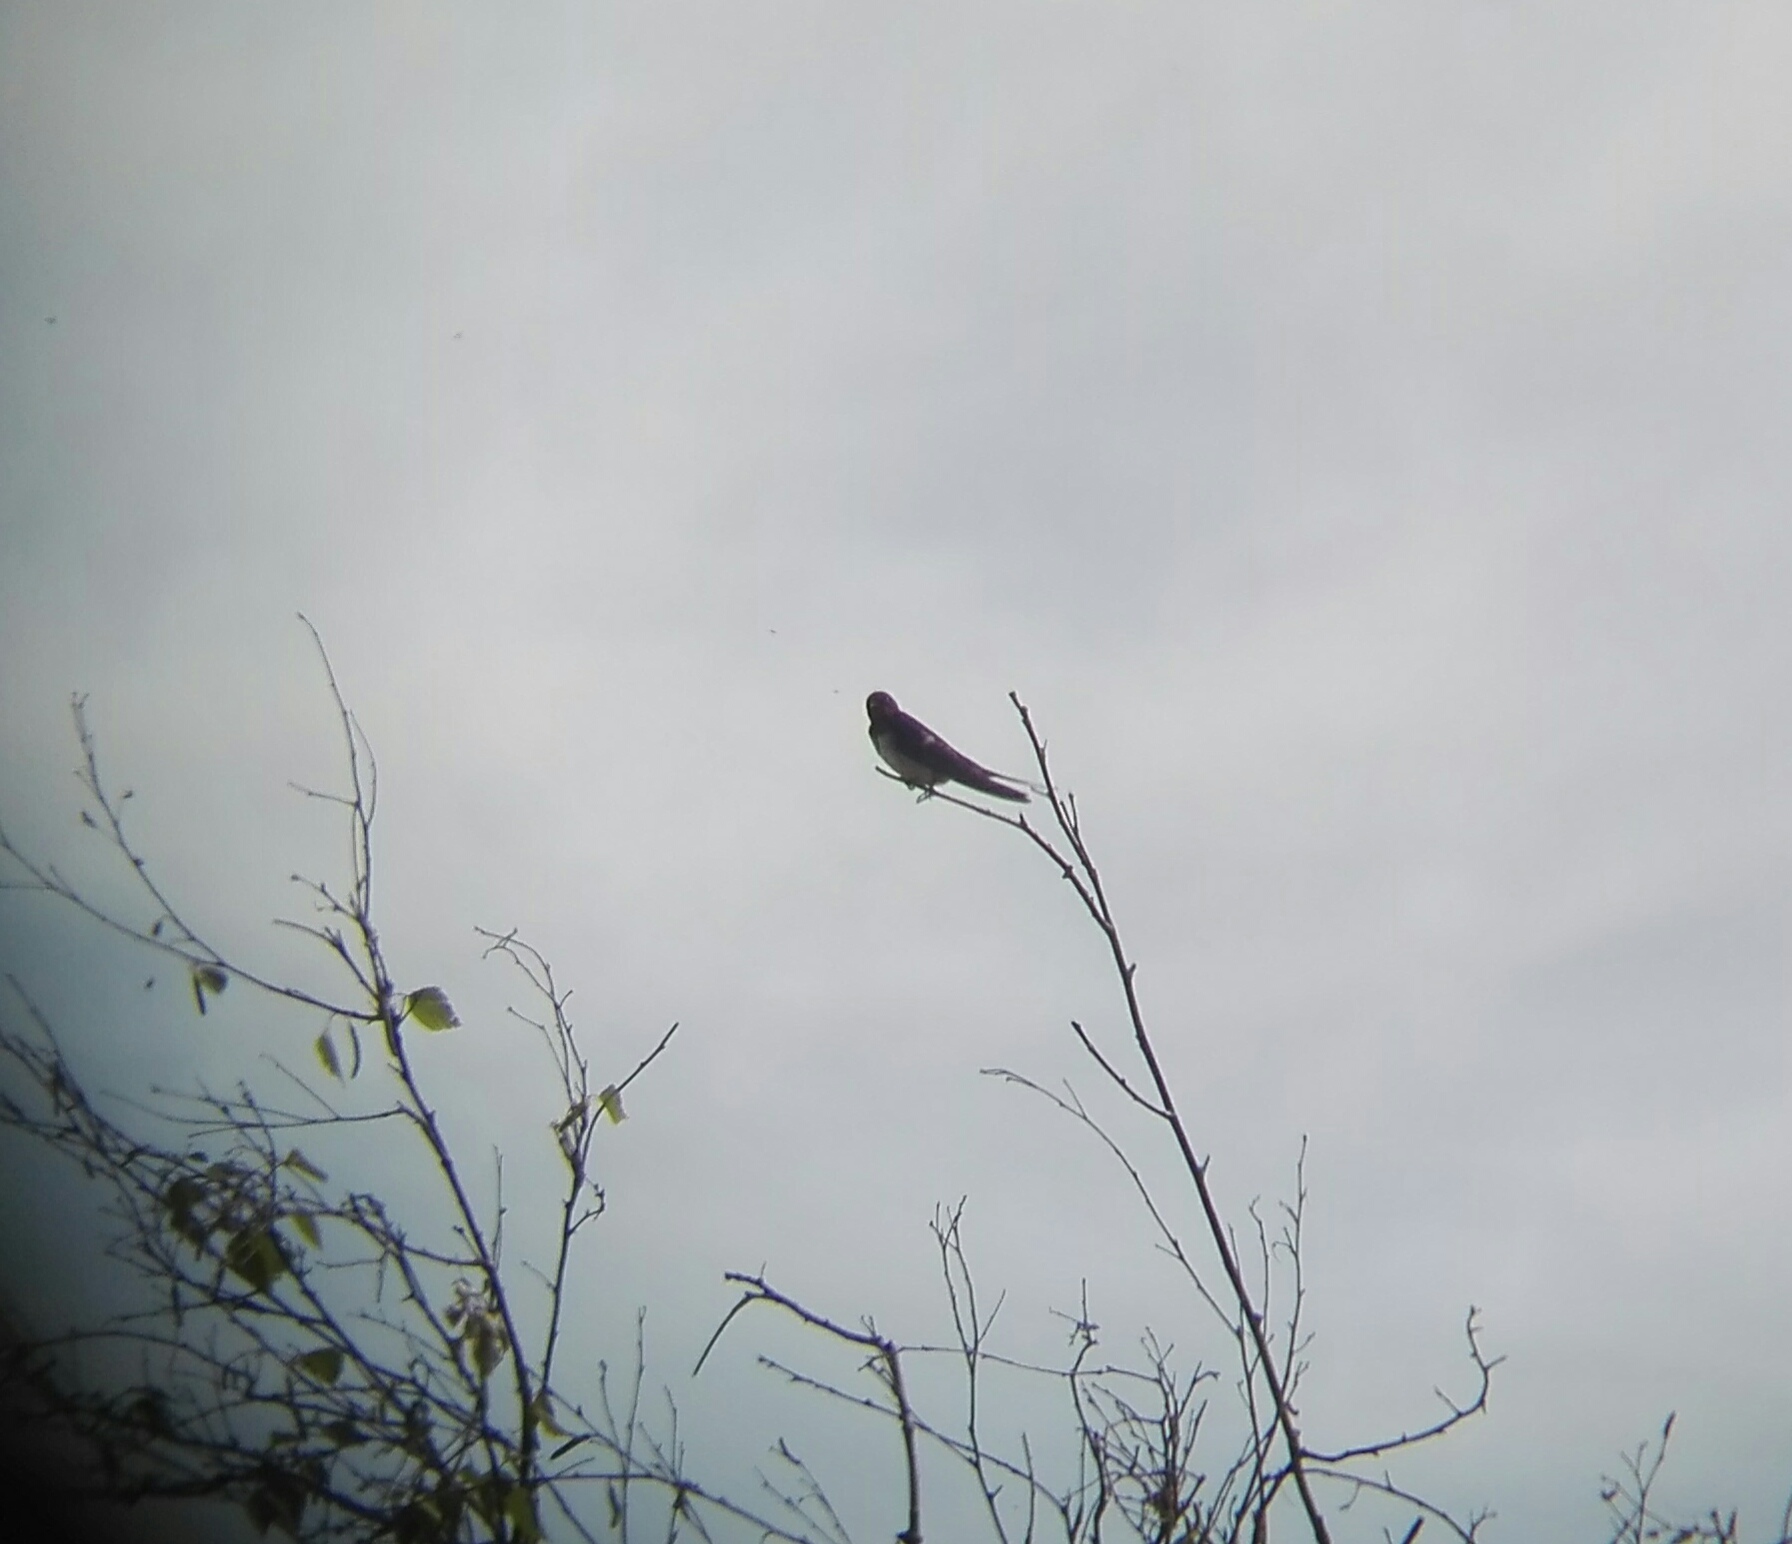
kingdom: Animalia
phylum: Chordata
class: Aves
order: Passeriformes
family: Hirundinidae
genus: Hirundo
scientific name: Hirundo rustica
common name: Barn swallow
